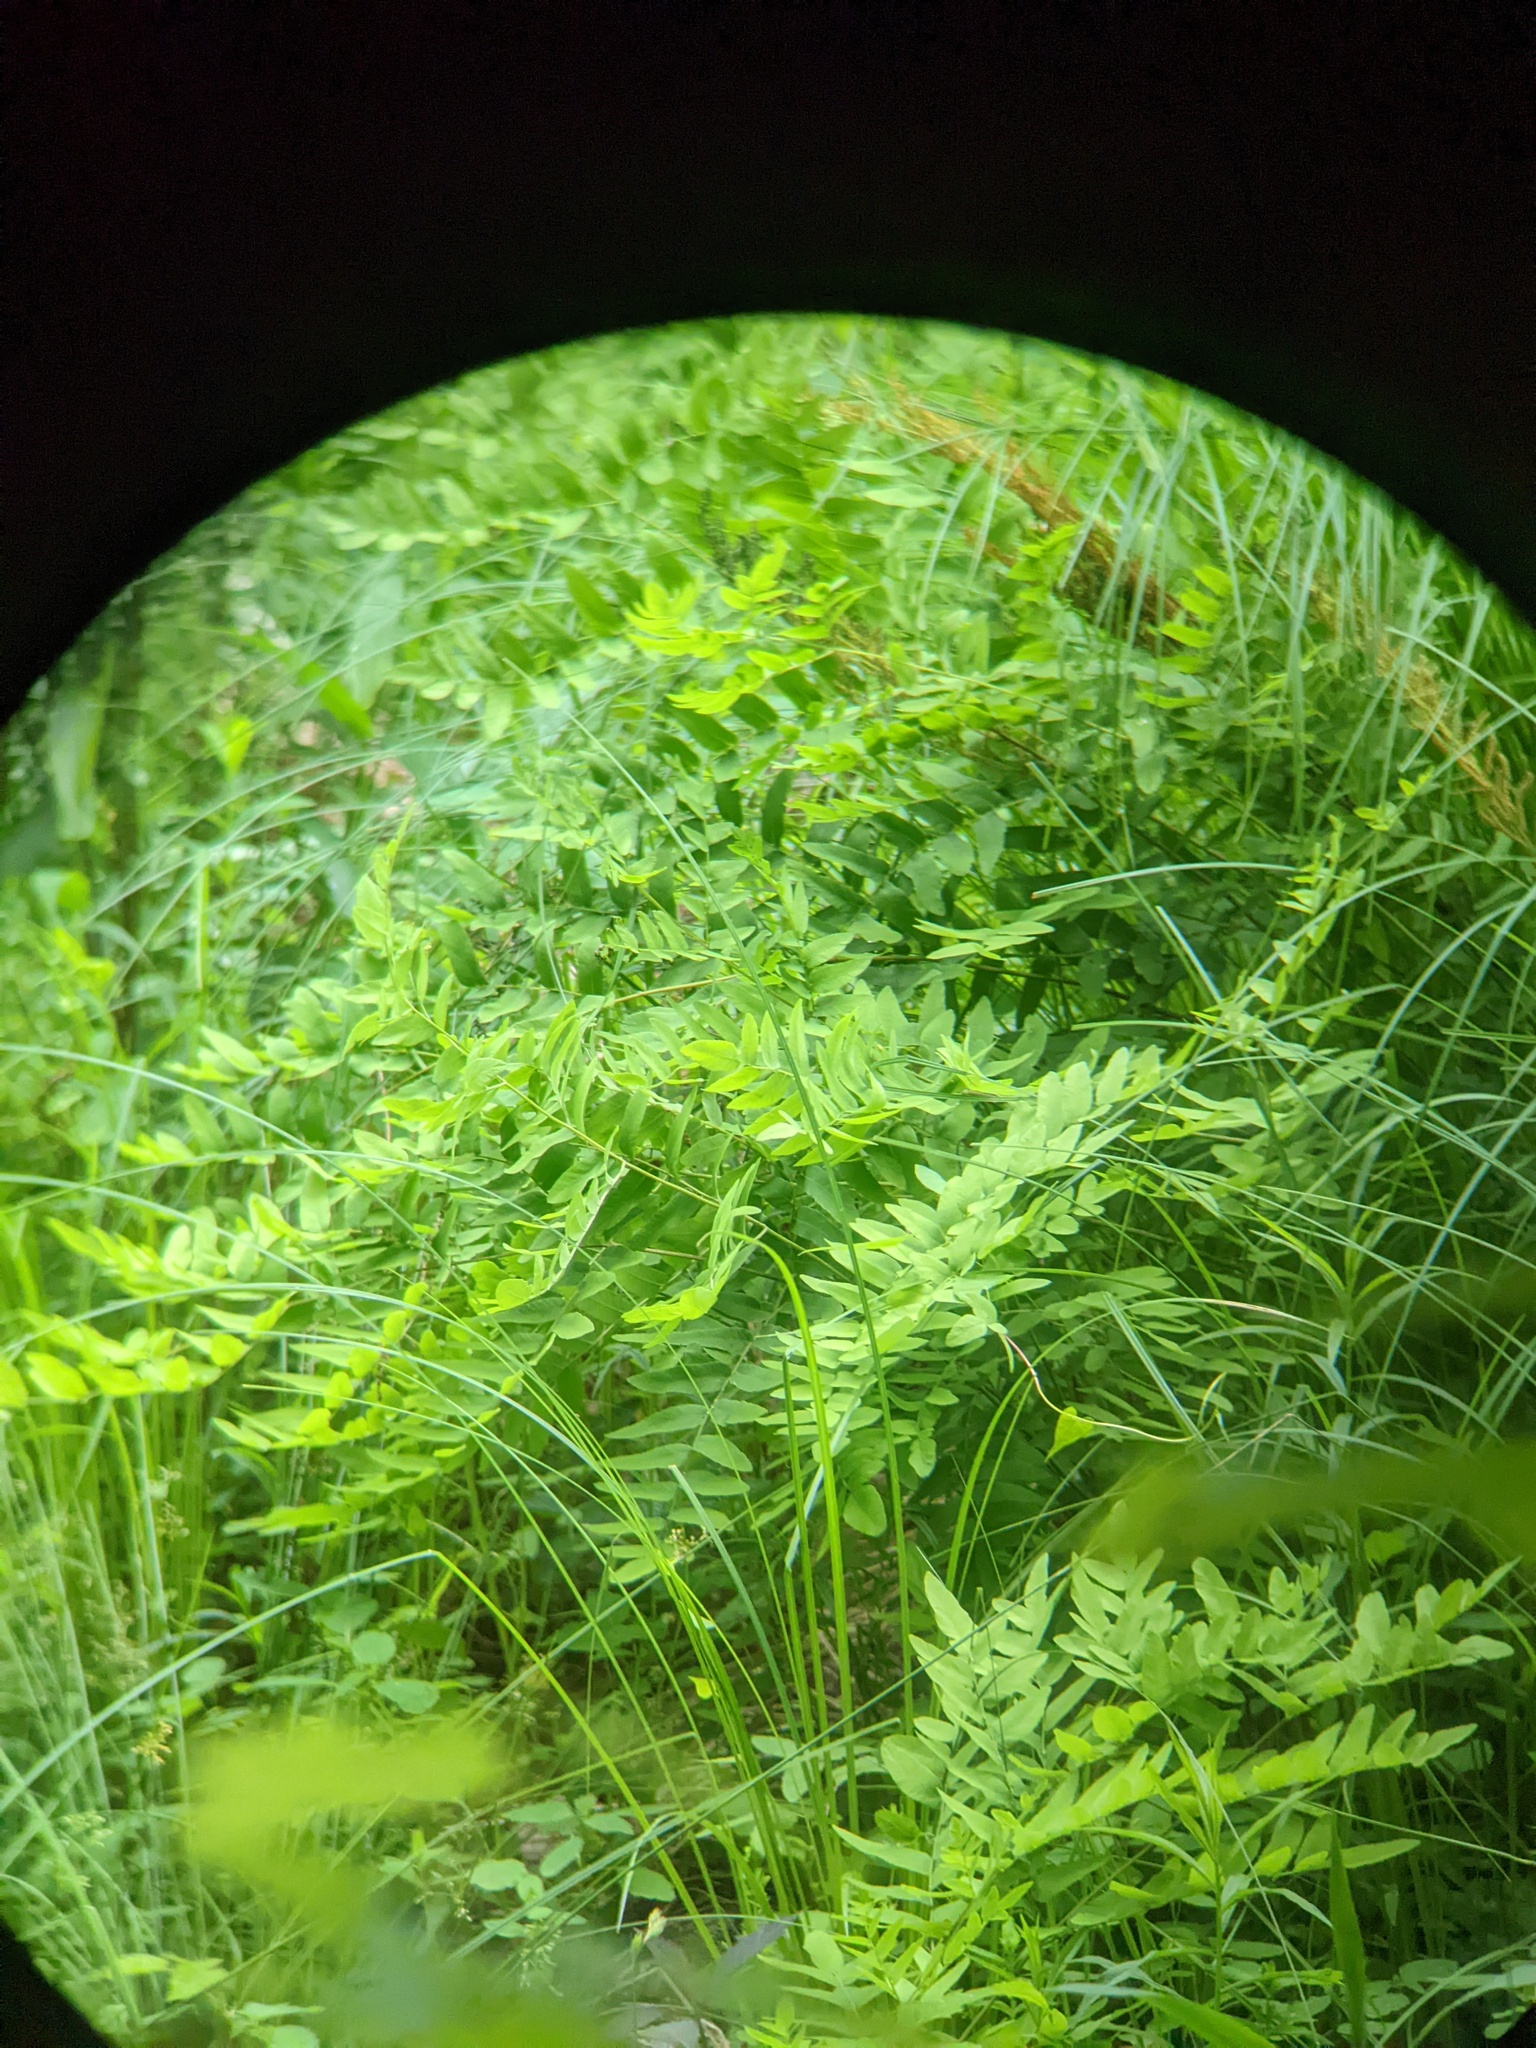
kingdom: Plantae
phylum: Tracheophyta
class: Polypodiopsida
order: Osmundales
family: Osmundaceae
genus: Osmunda
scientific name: Osmunda spectabilis
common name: American royal fern
